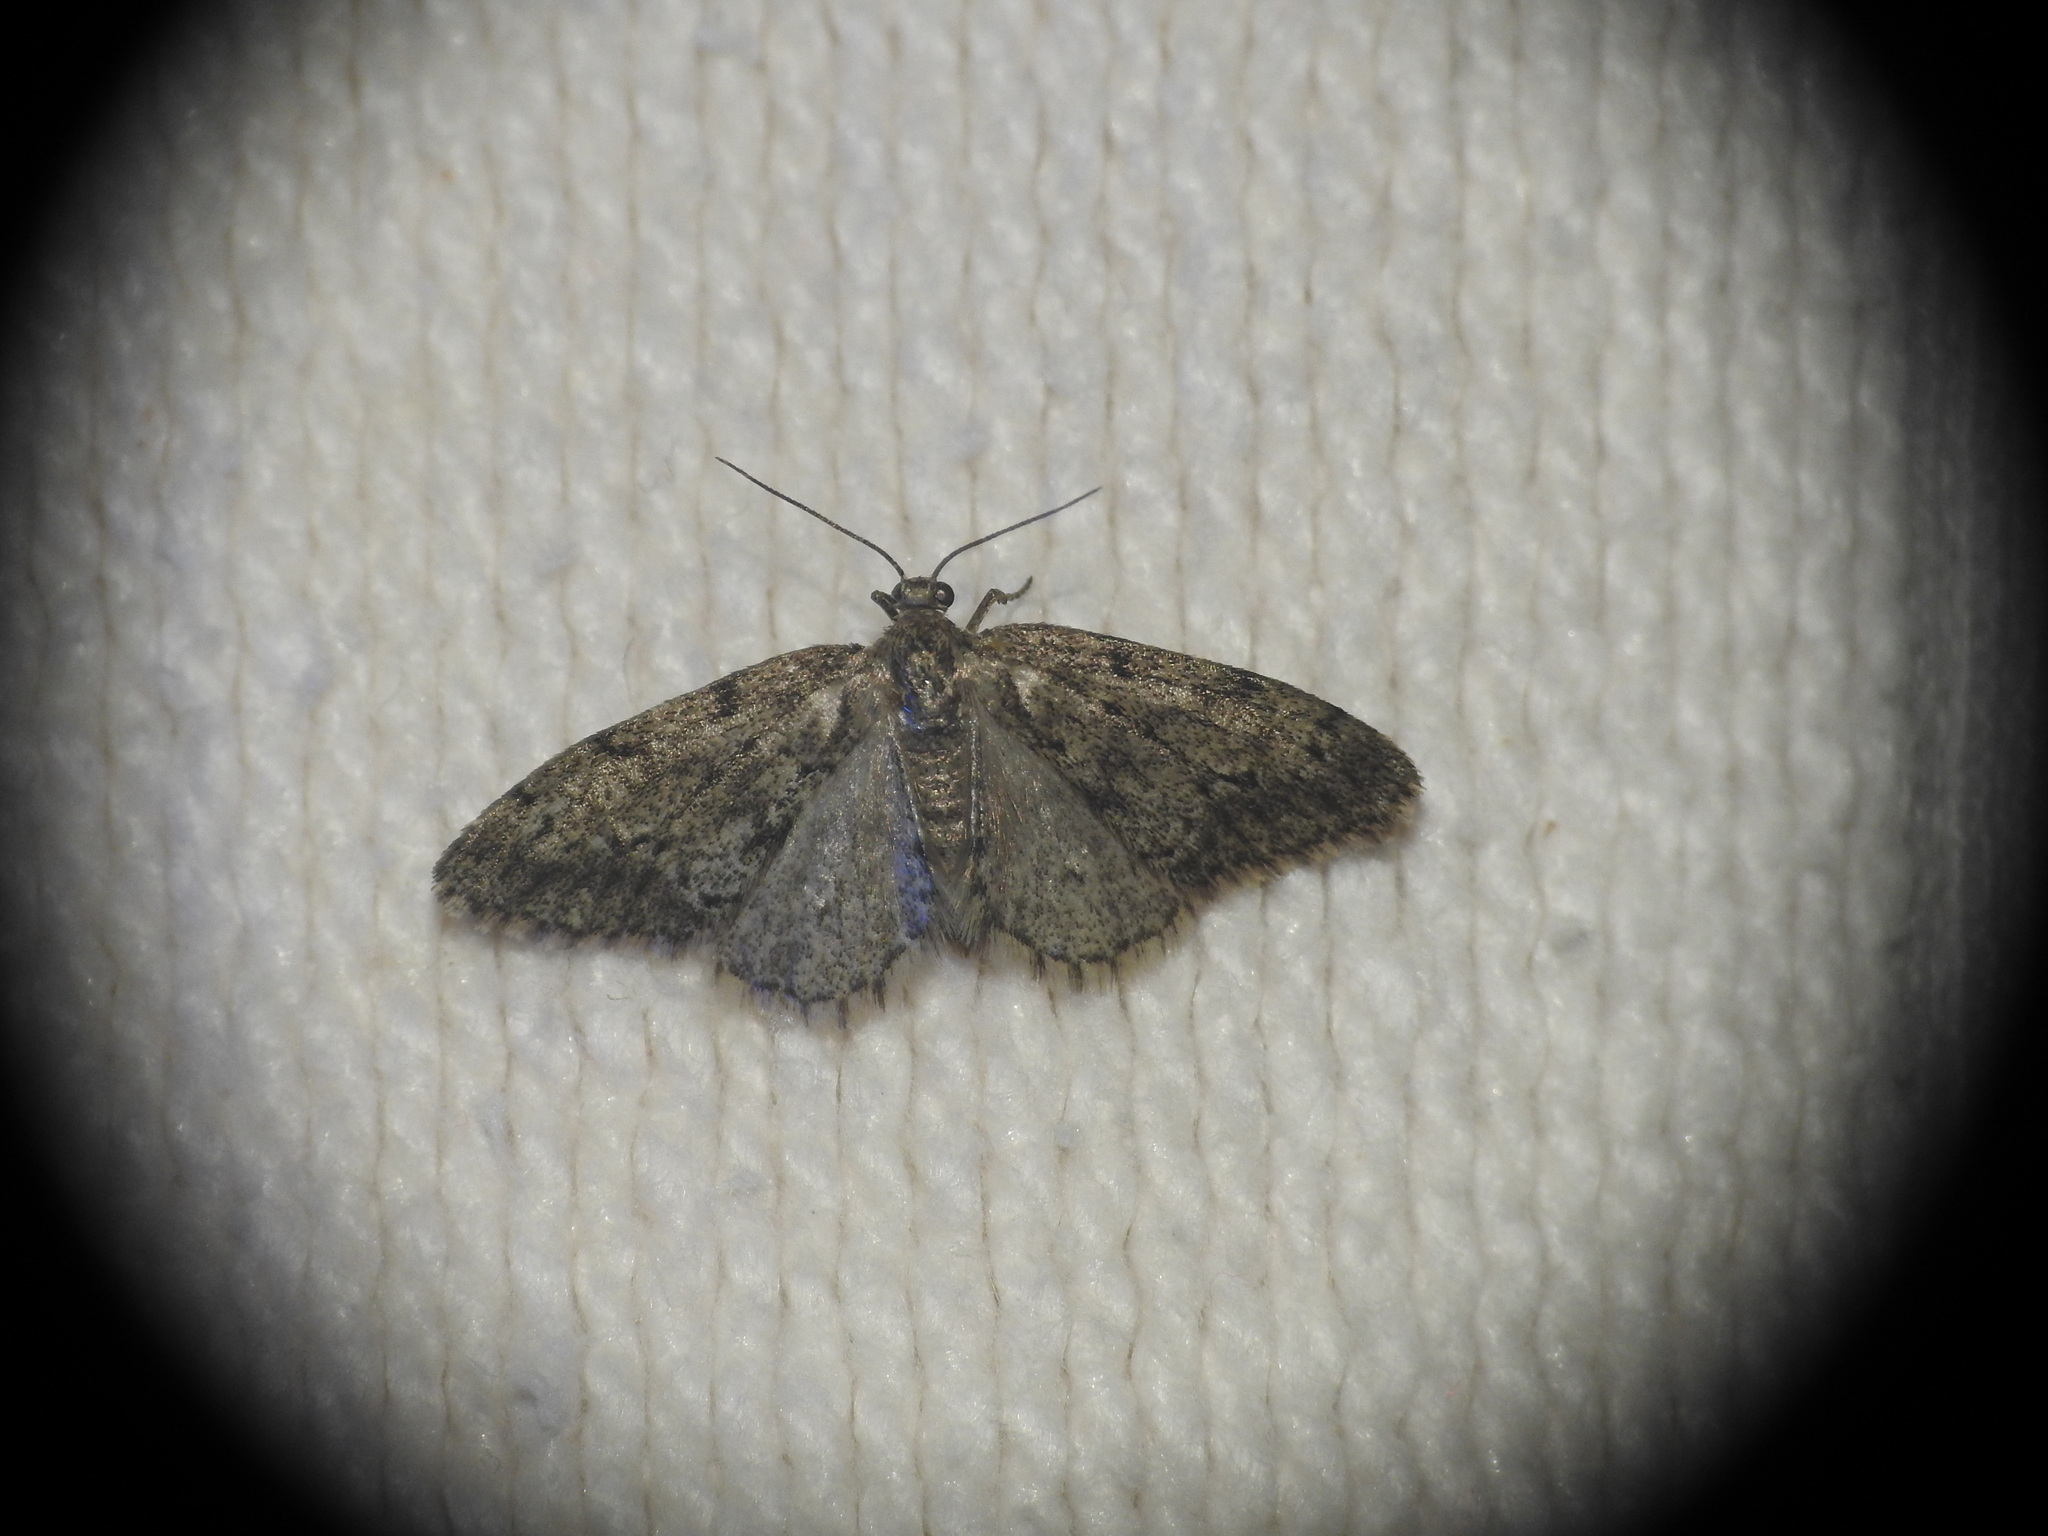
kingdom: Animalia
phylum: Arthropoda
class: Insecta
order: Lepidoptera
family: Geometridae
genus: Tephronia
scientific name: Tephronia sepiaria
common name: Dusky carpet
